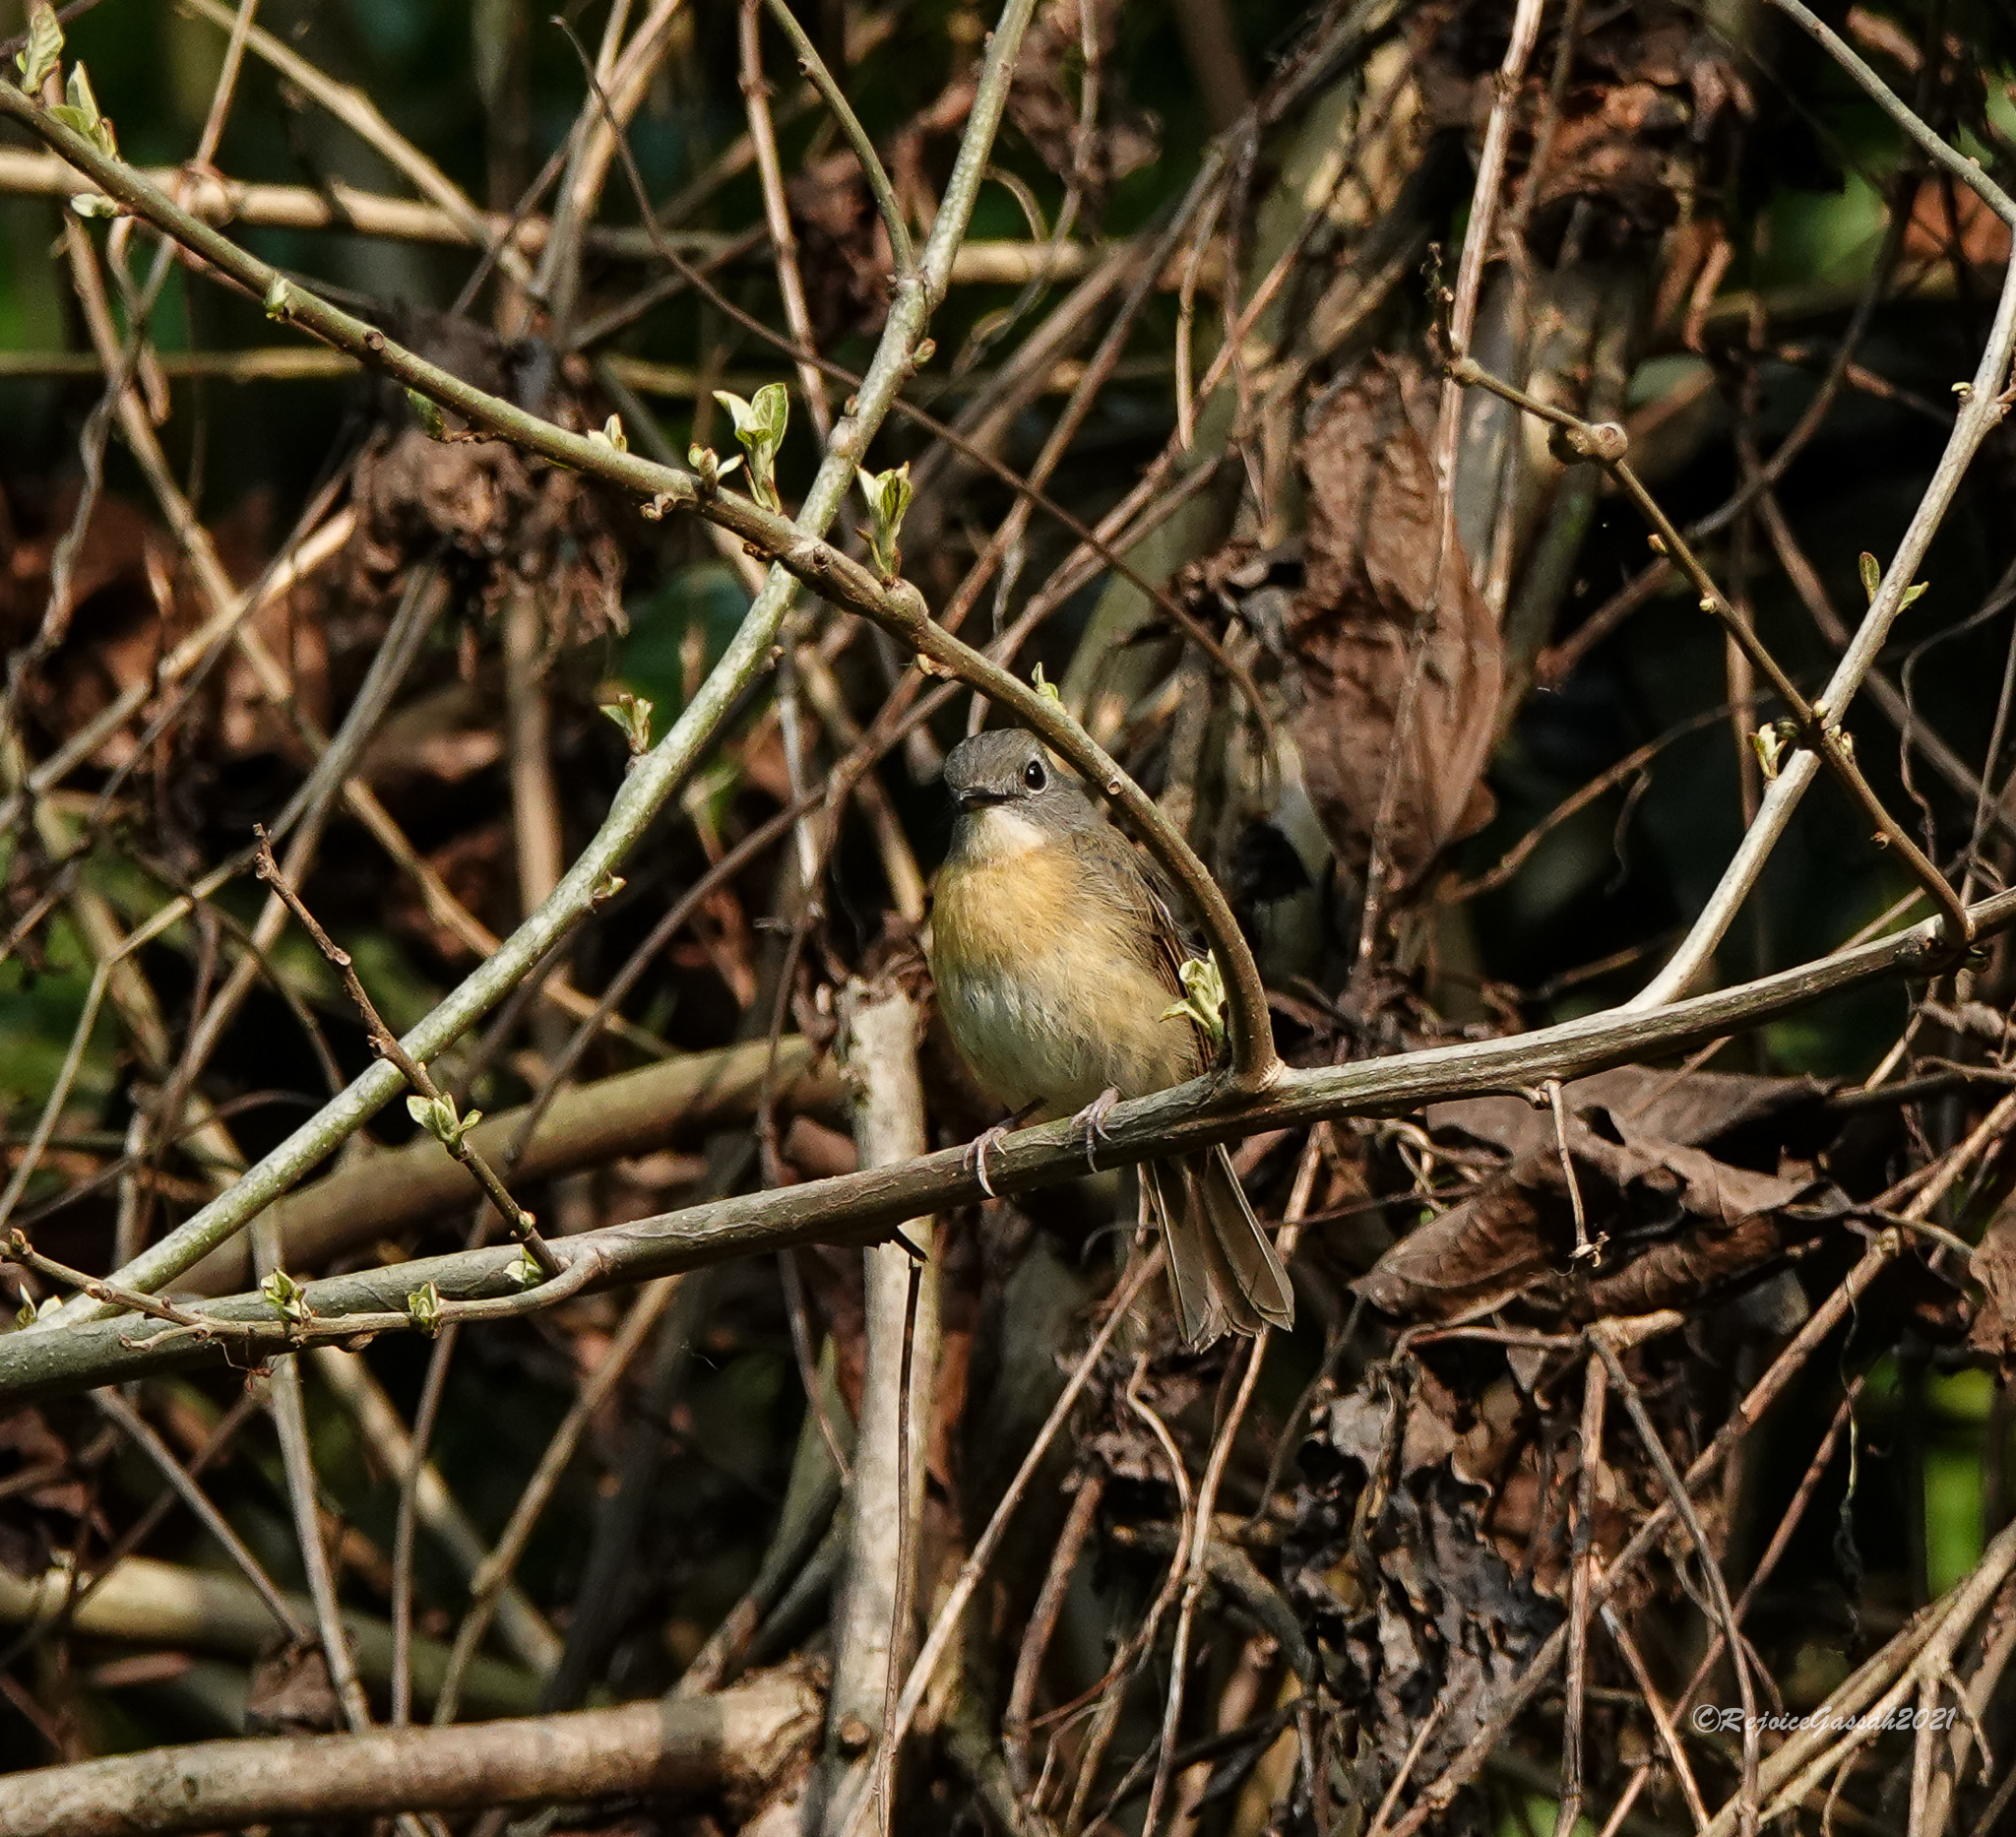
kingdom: Animalia
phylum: Chordata
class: Aves
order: Passeriformes
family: Muscicapidae
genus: Cyornis
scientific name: Cyornis poliogenys
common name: Pale-chinned blue flycatcher
